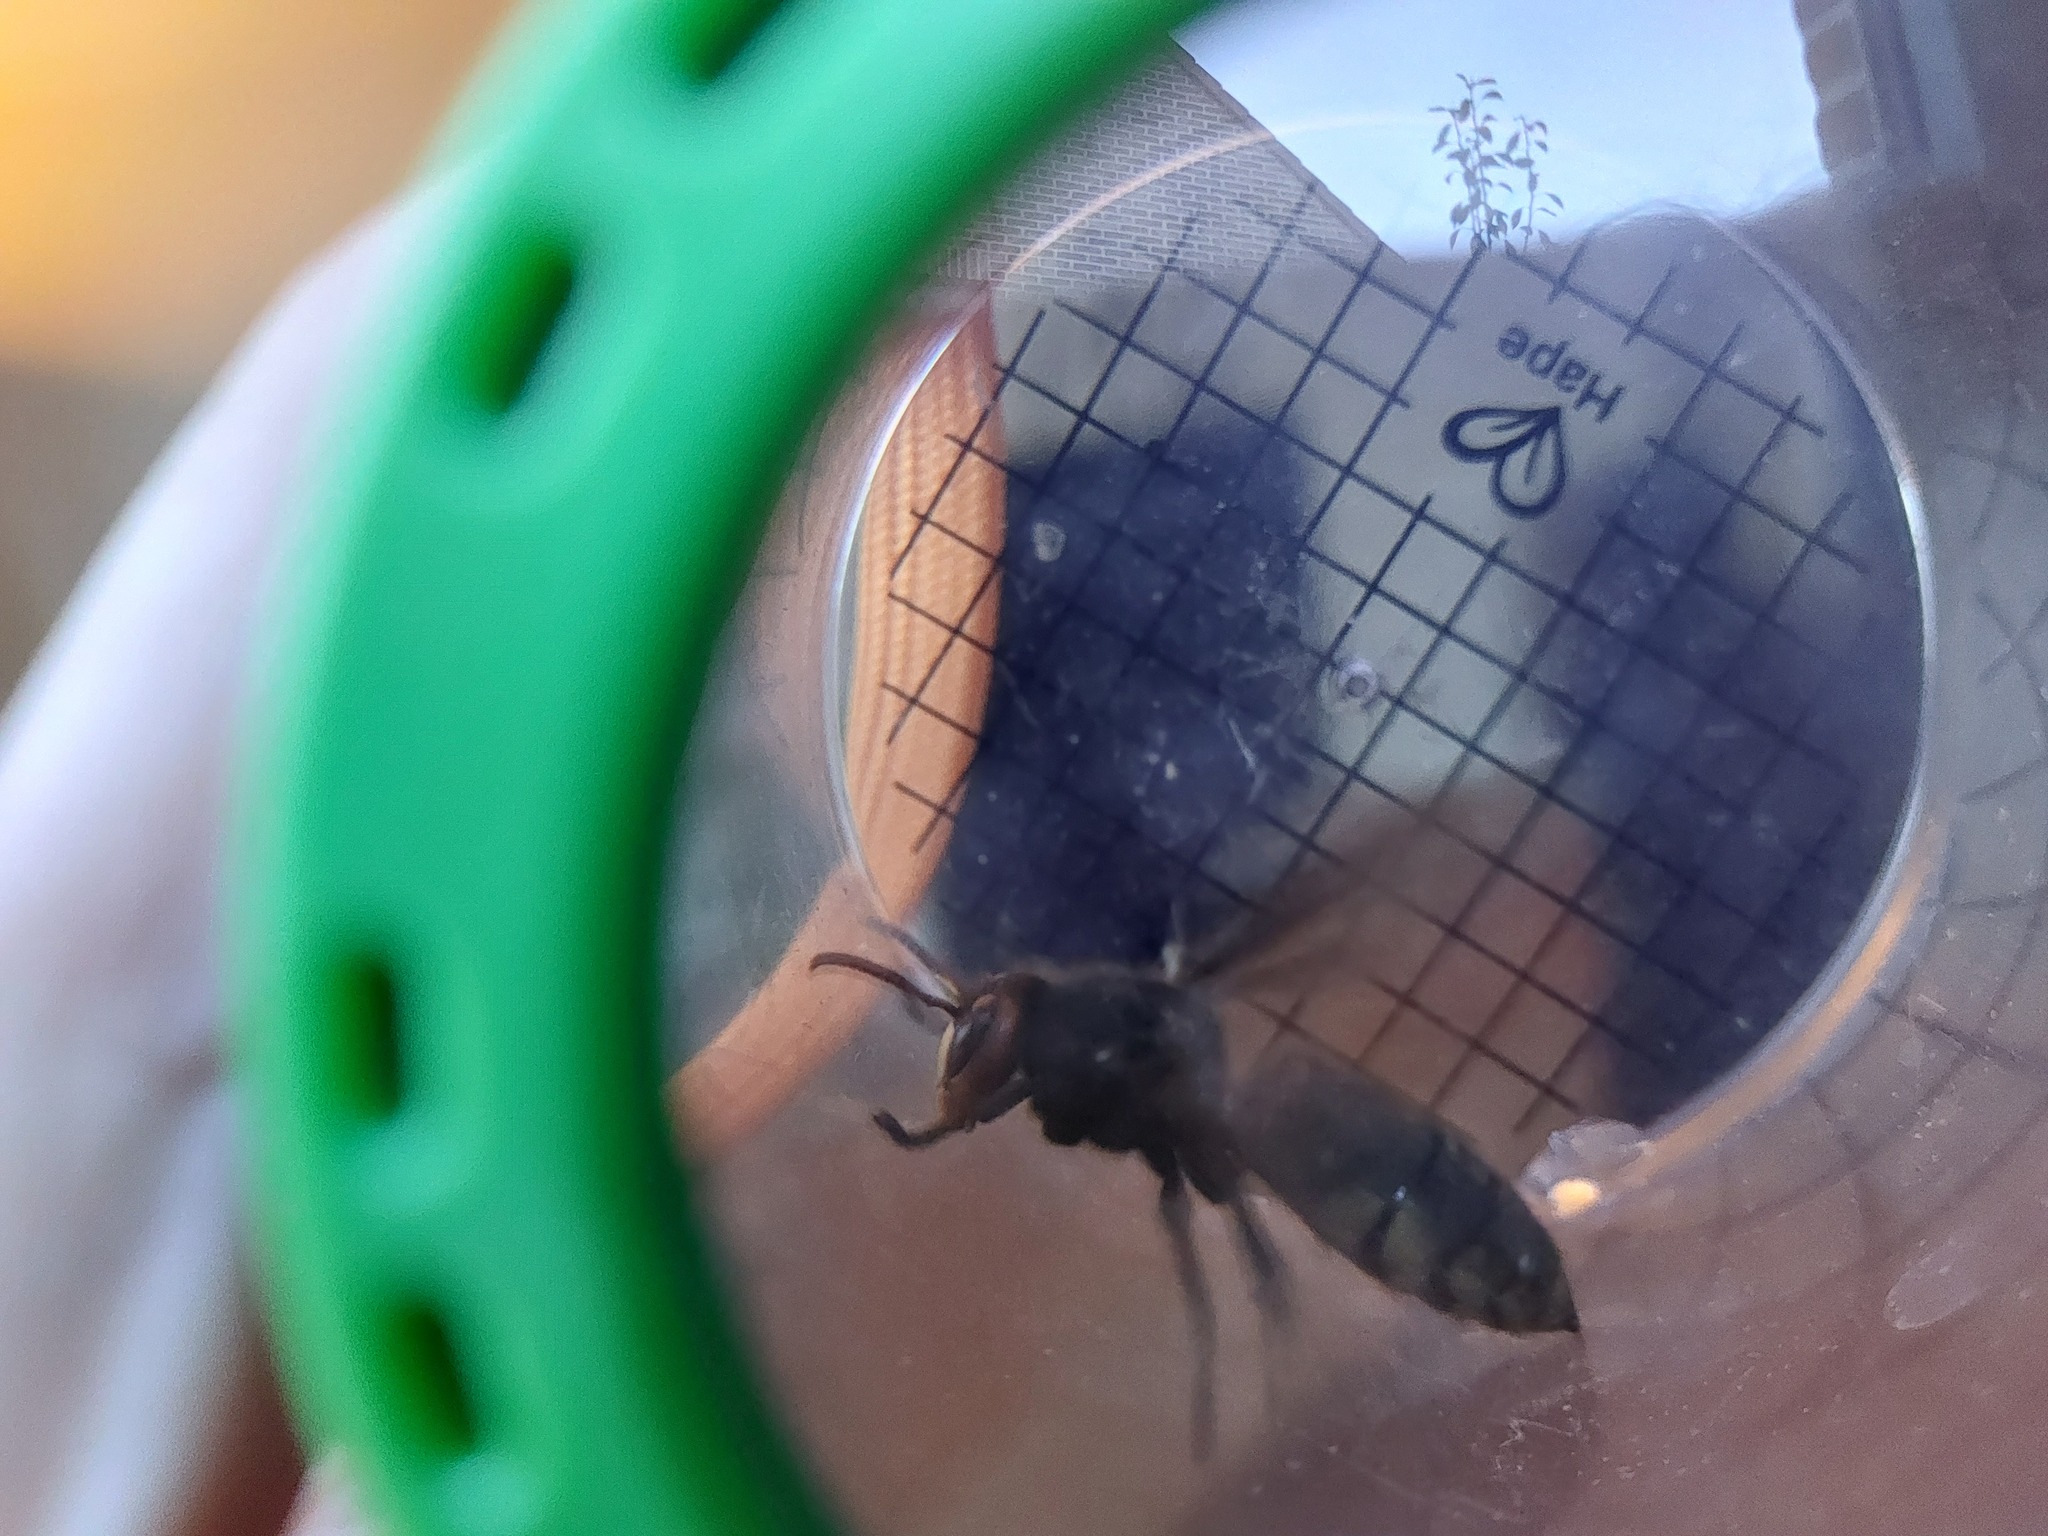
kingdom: Animalia
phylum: Arthropoda
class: Insecta
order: Hymenoptera
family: Vespidae
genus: Vespa
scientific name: Vespa crabro
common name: Hornet
